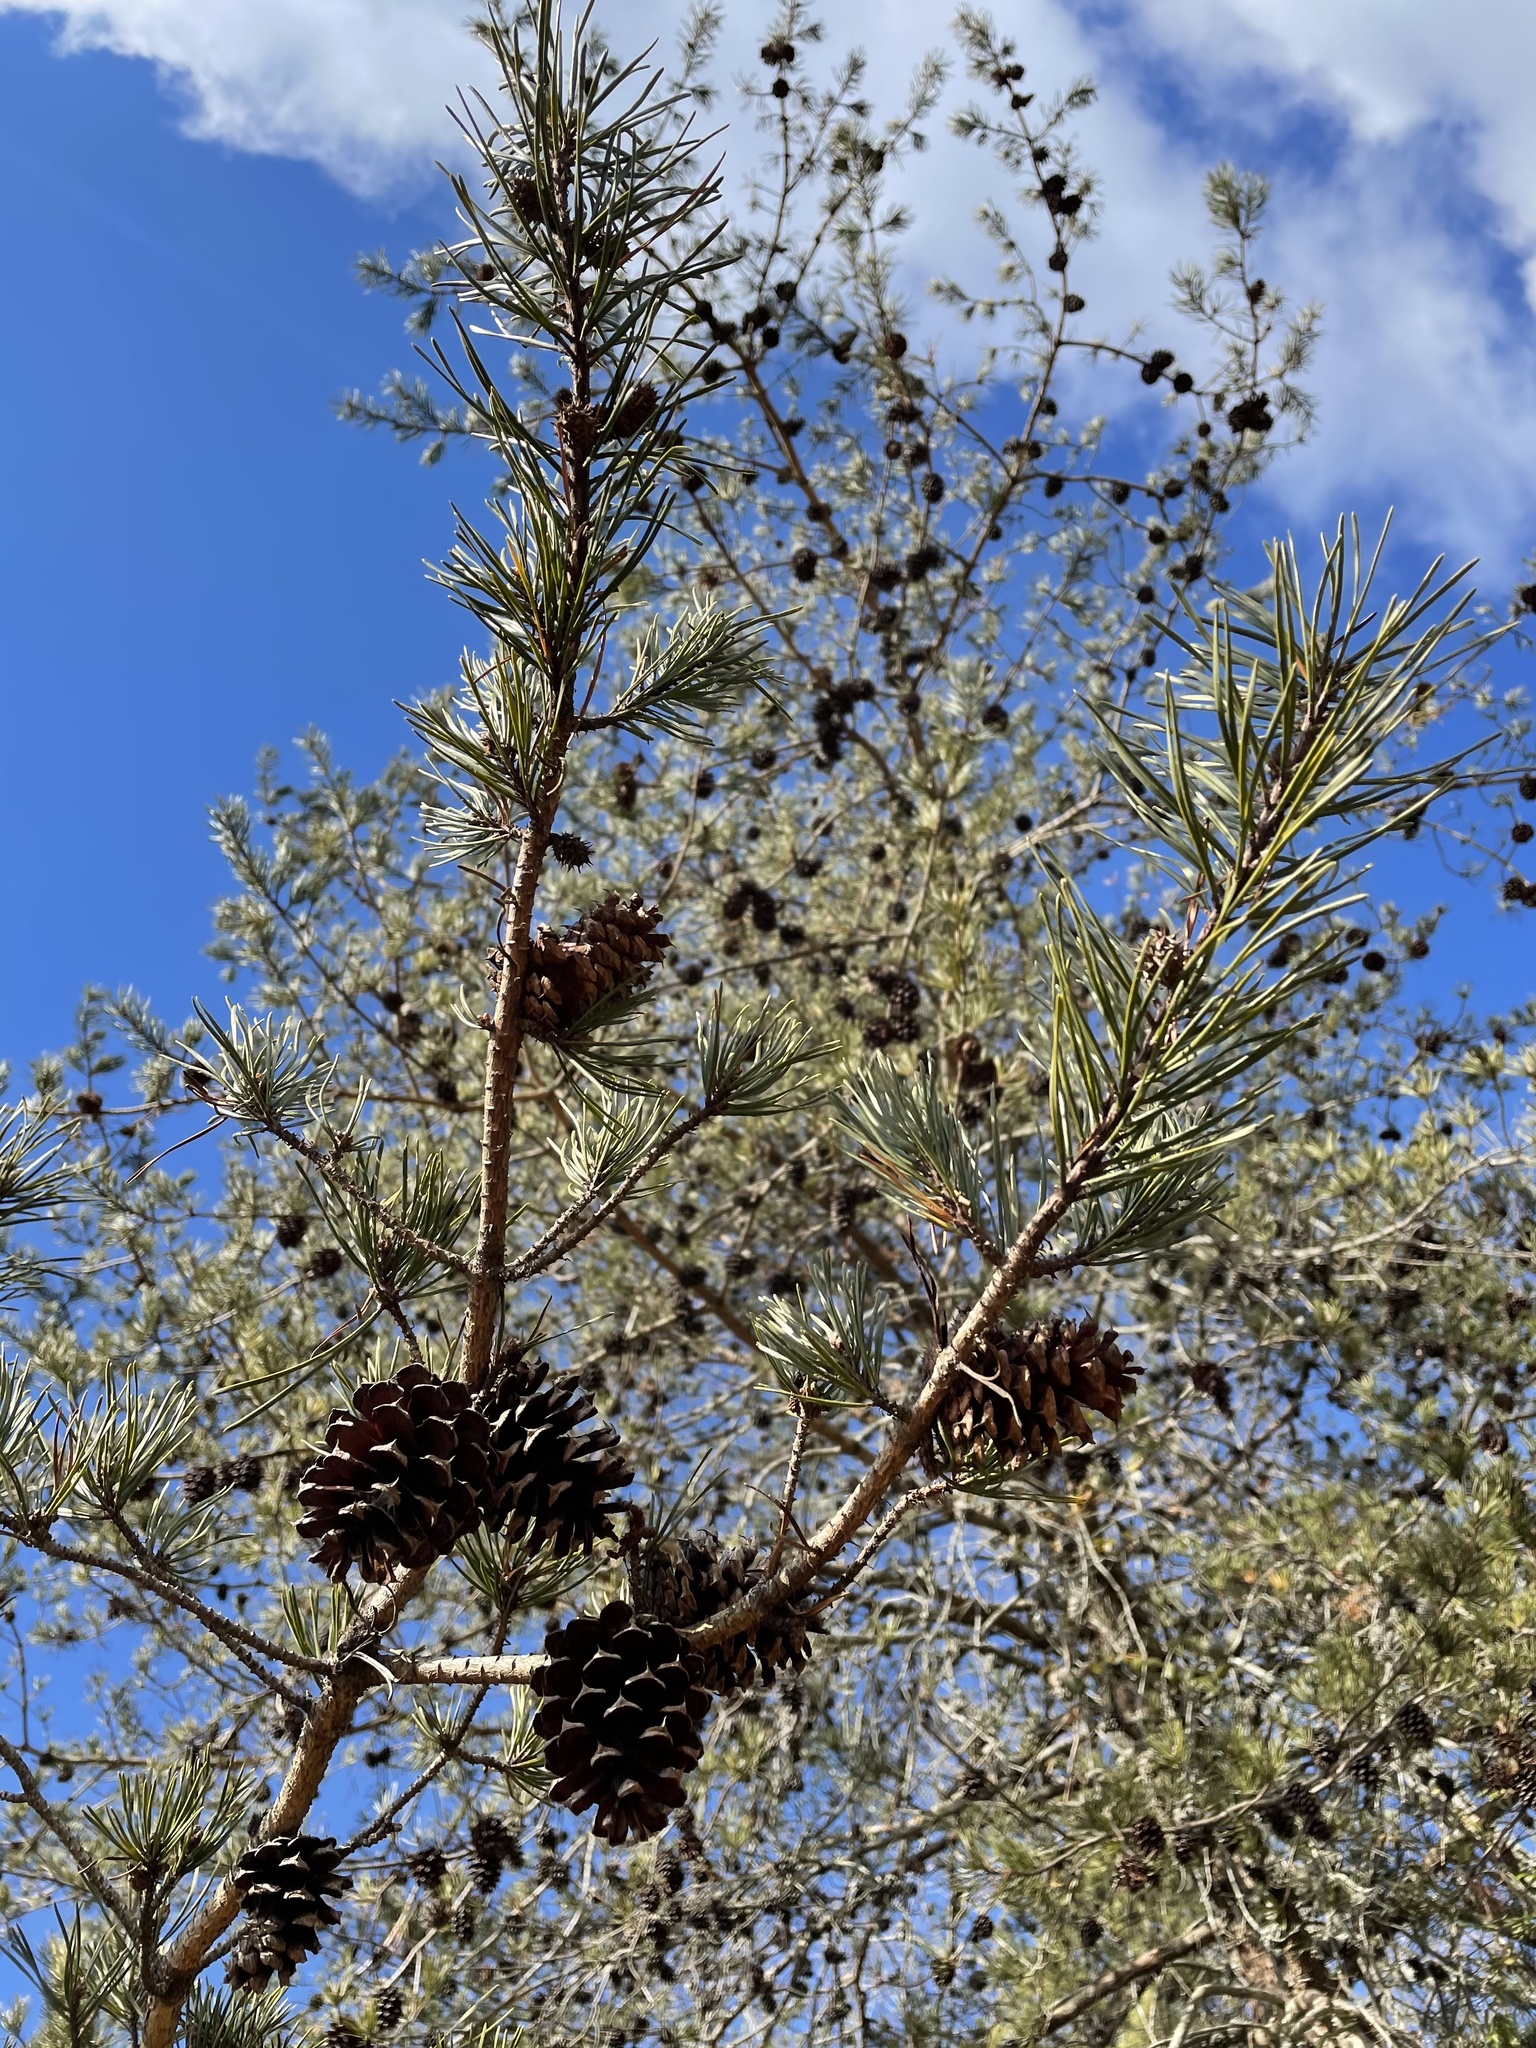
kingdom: Plantae
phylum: Tracheophyta
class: Pinopsida
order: Pinales
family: Pinaceae
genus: Pinus
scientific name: Pinus virginiana
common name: Scrub pine
